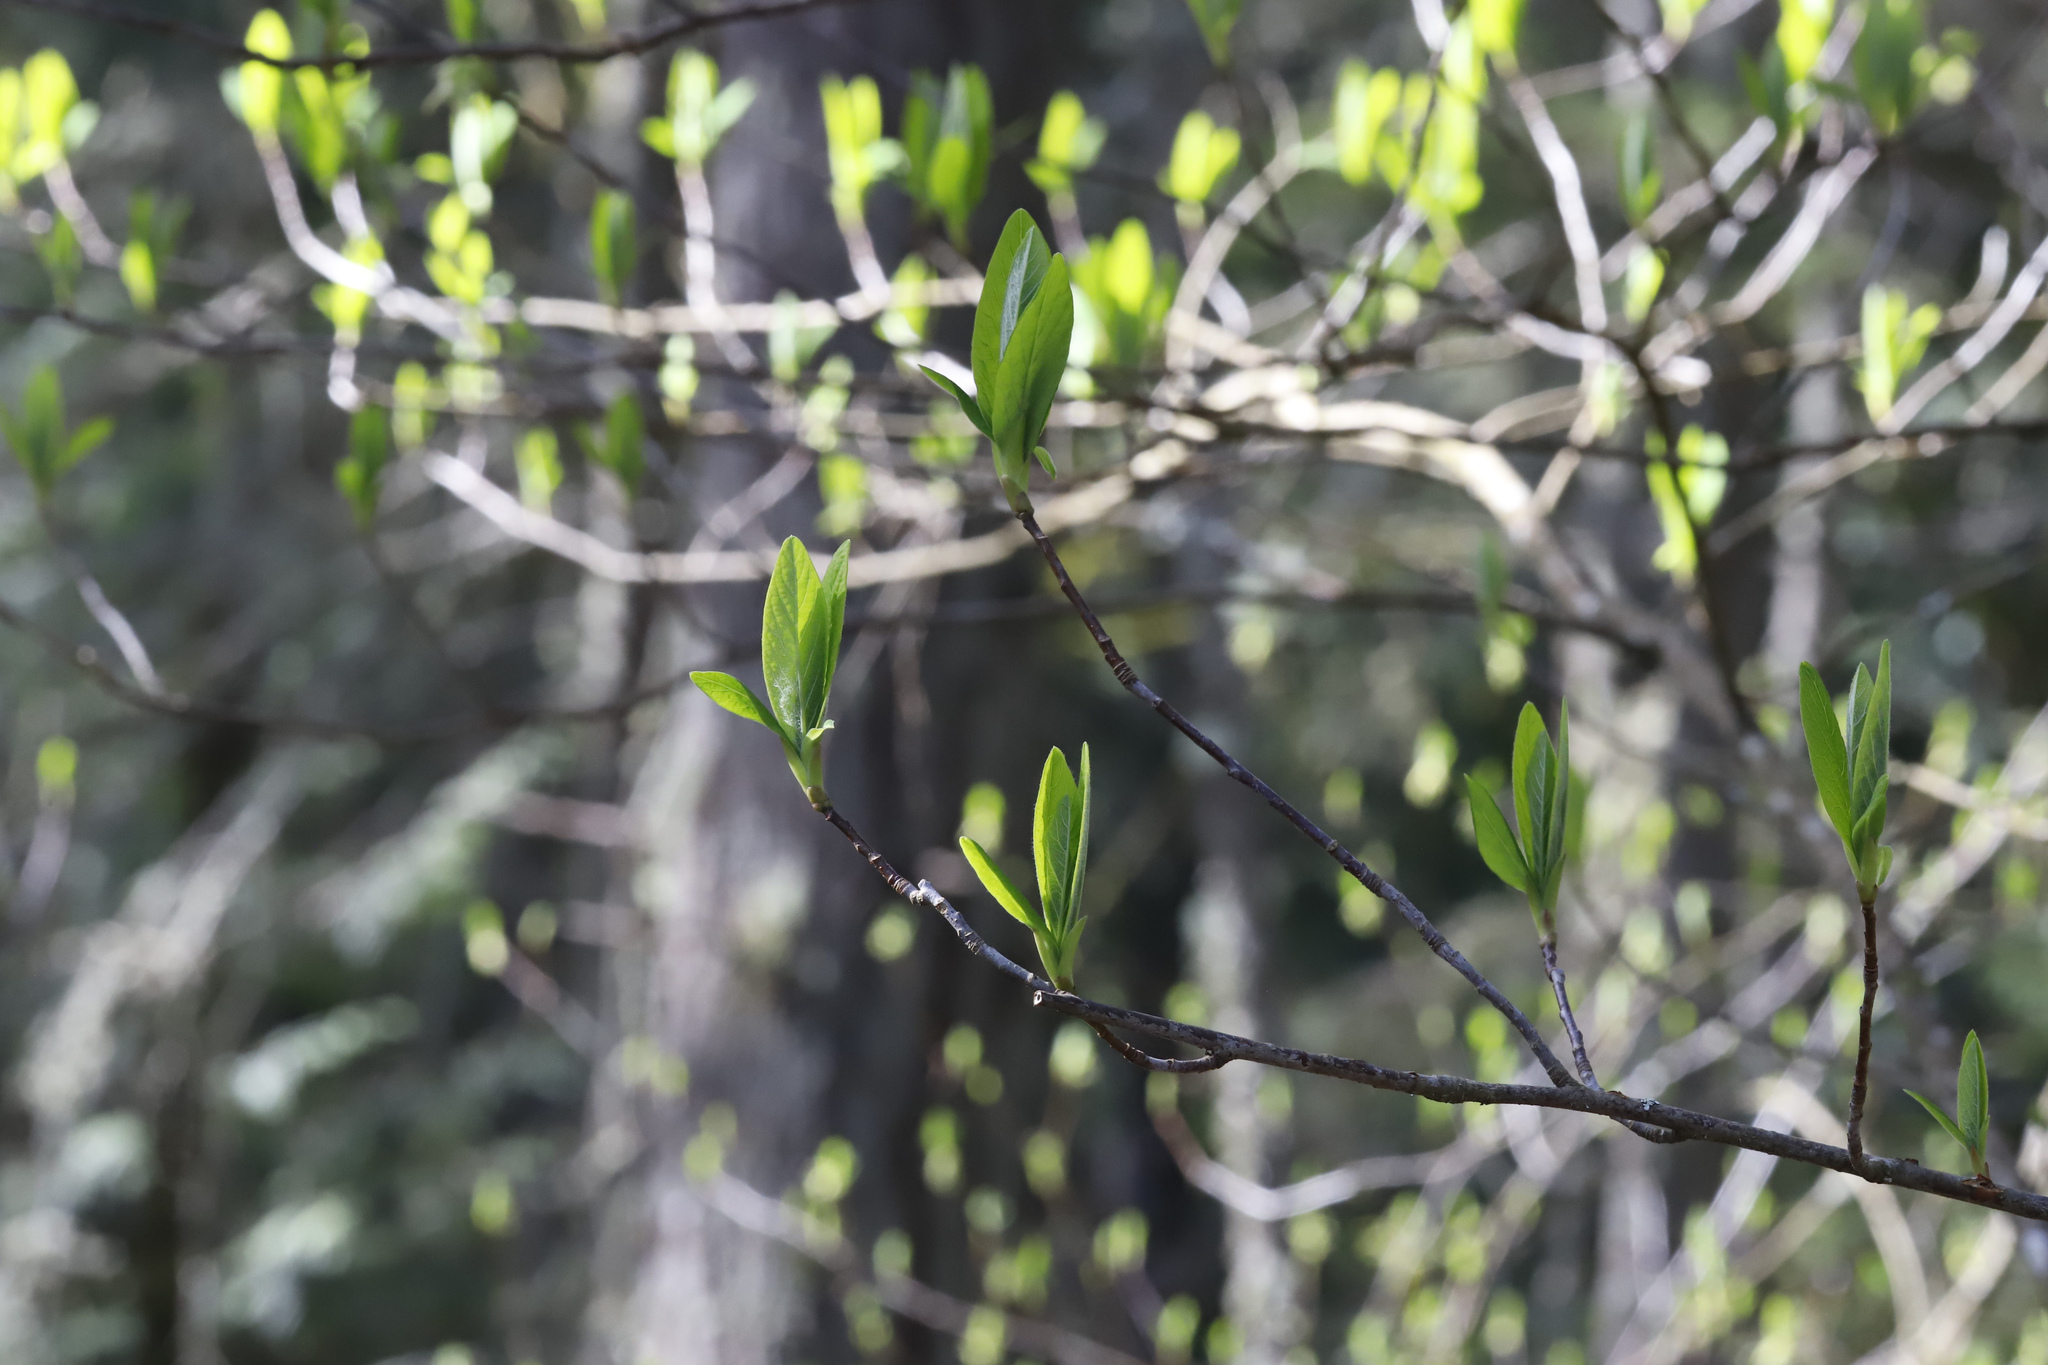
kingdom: Plantae
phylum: Tracheophyta
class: Magnoliopsida
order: Rosales
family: Rosaceae
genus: Oemleria
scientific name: Oemleria cerasiformis
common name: Osoberry
